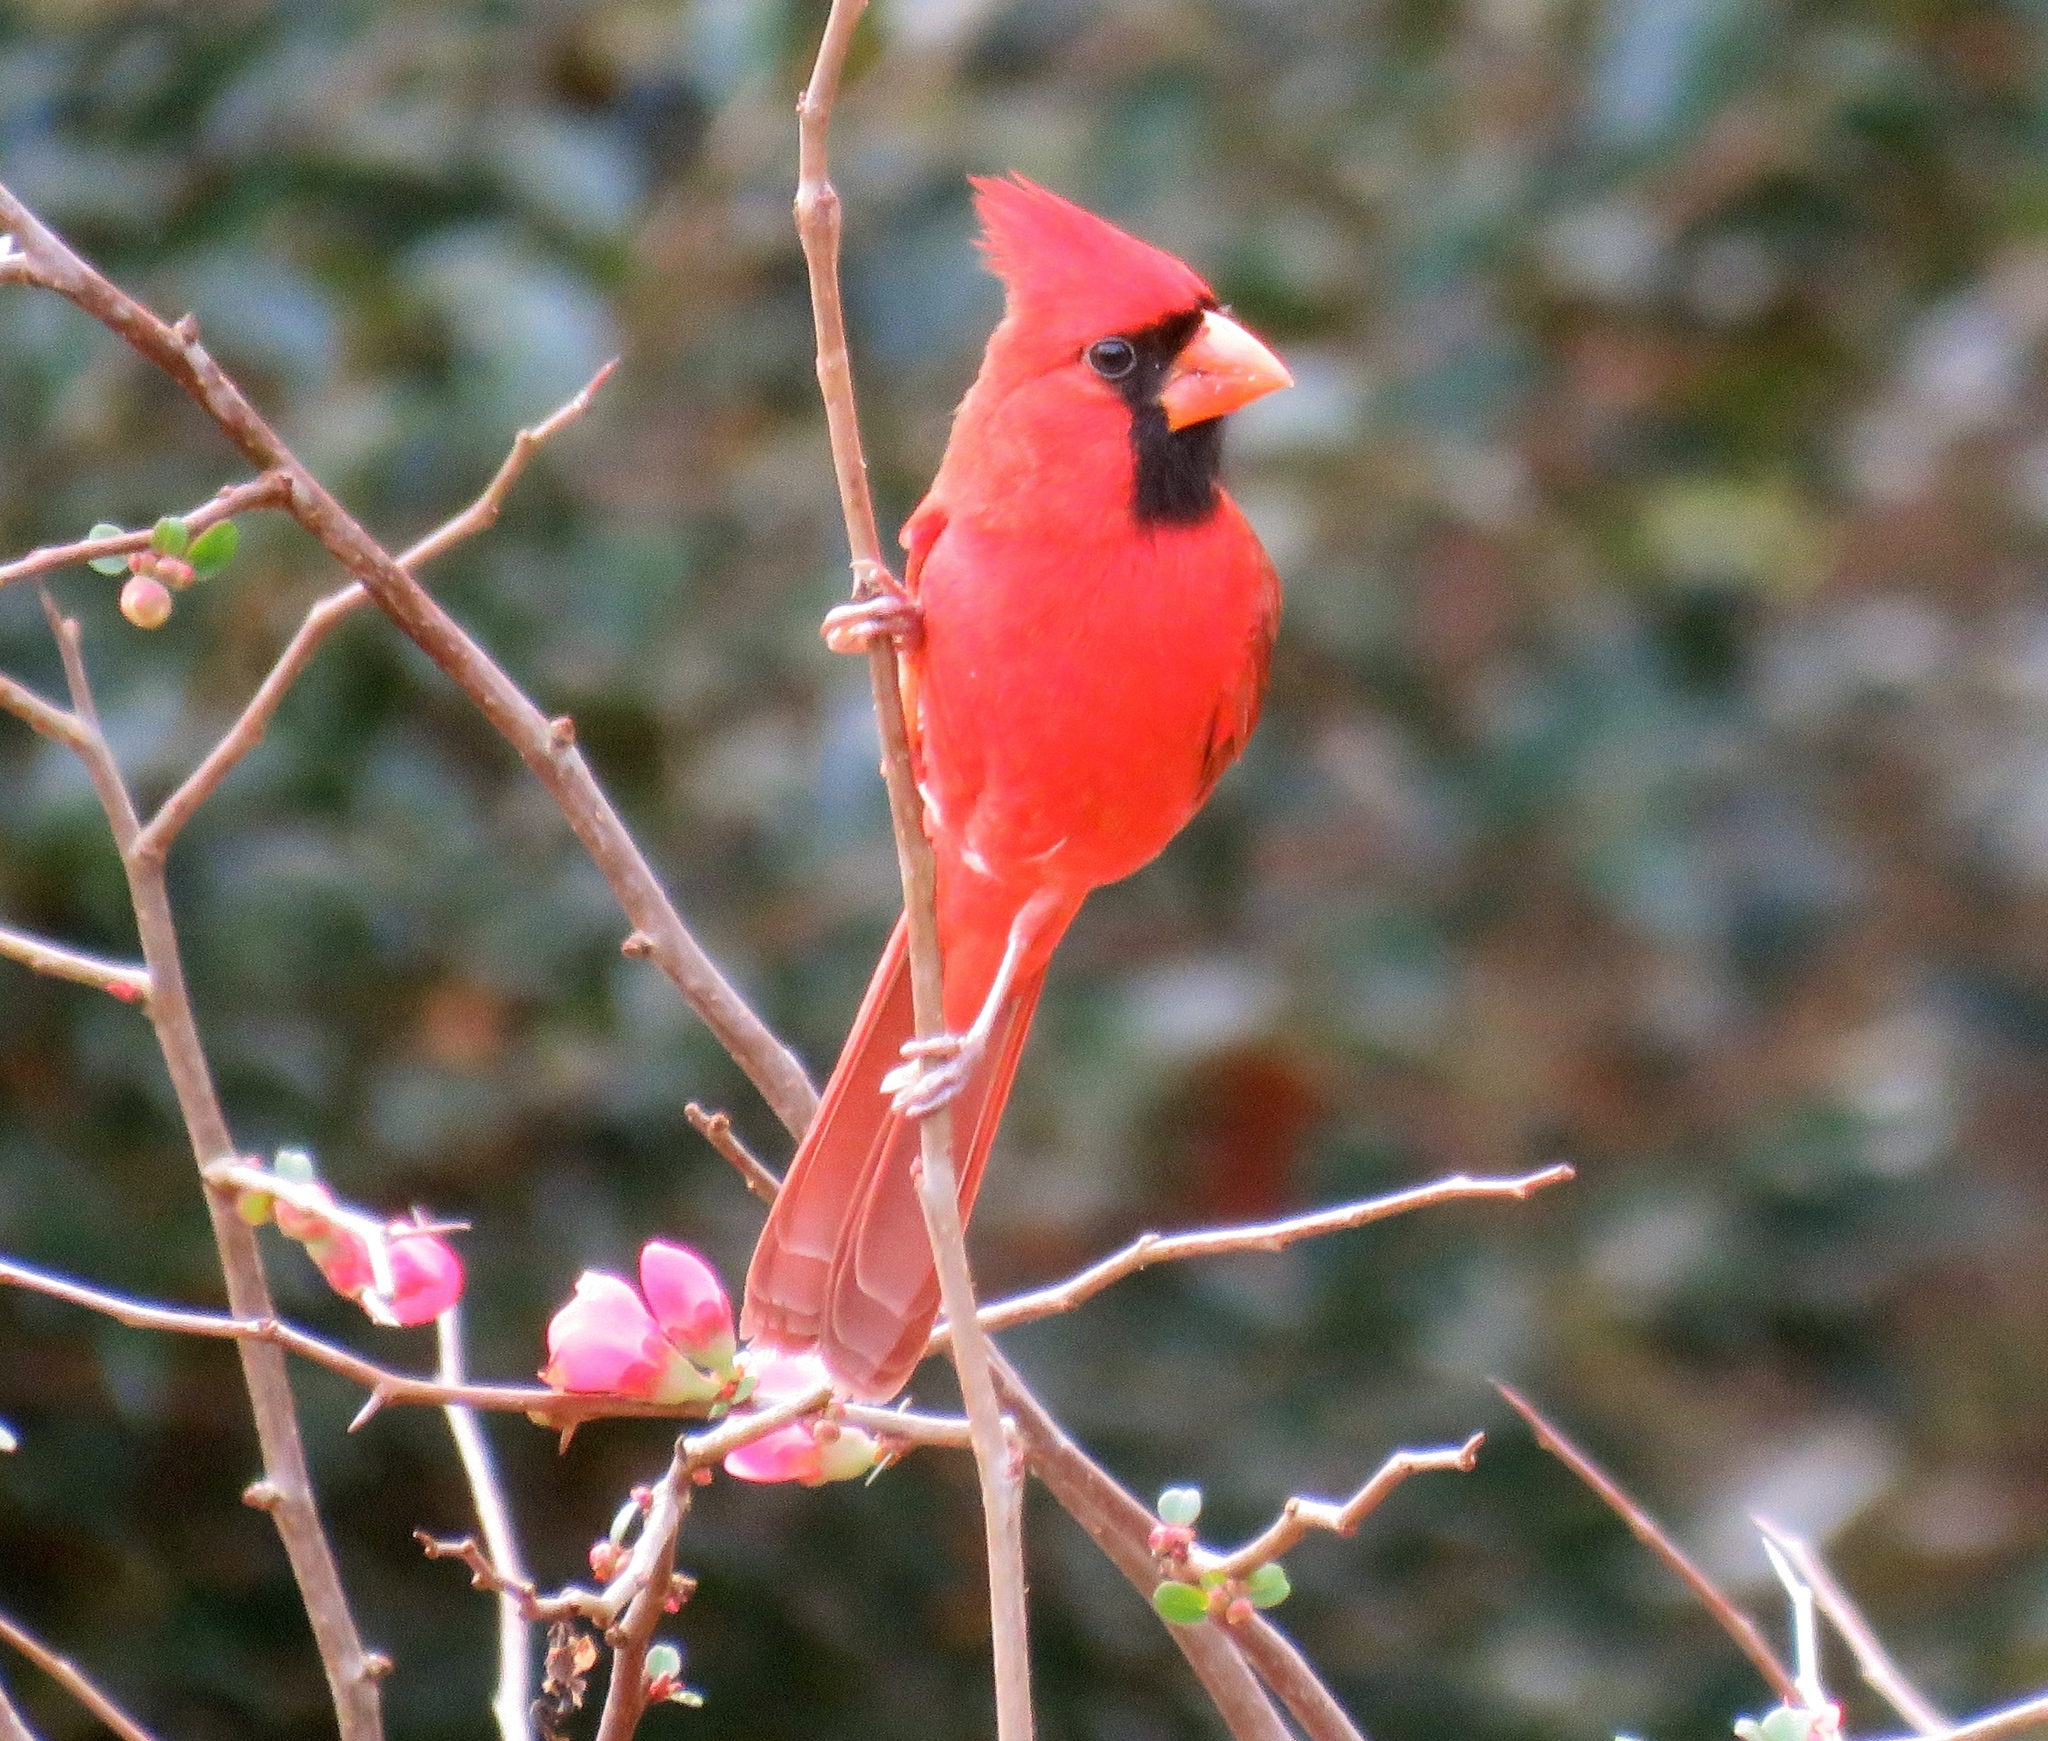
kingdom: Animalia
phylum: Chordata
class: Aves
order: Passeriformes
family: Cardinalidae
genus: Cardinalis
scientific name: Cardinalis cardinalis
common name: Northern cardinal
